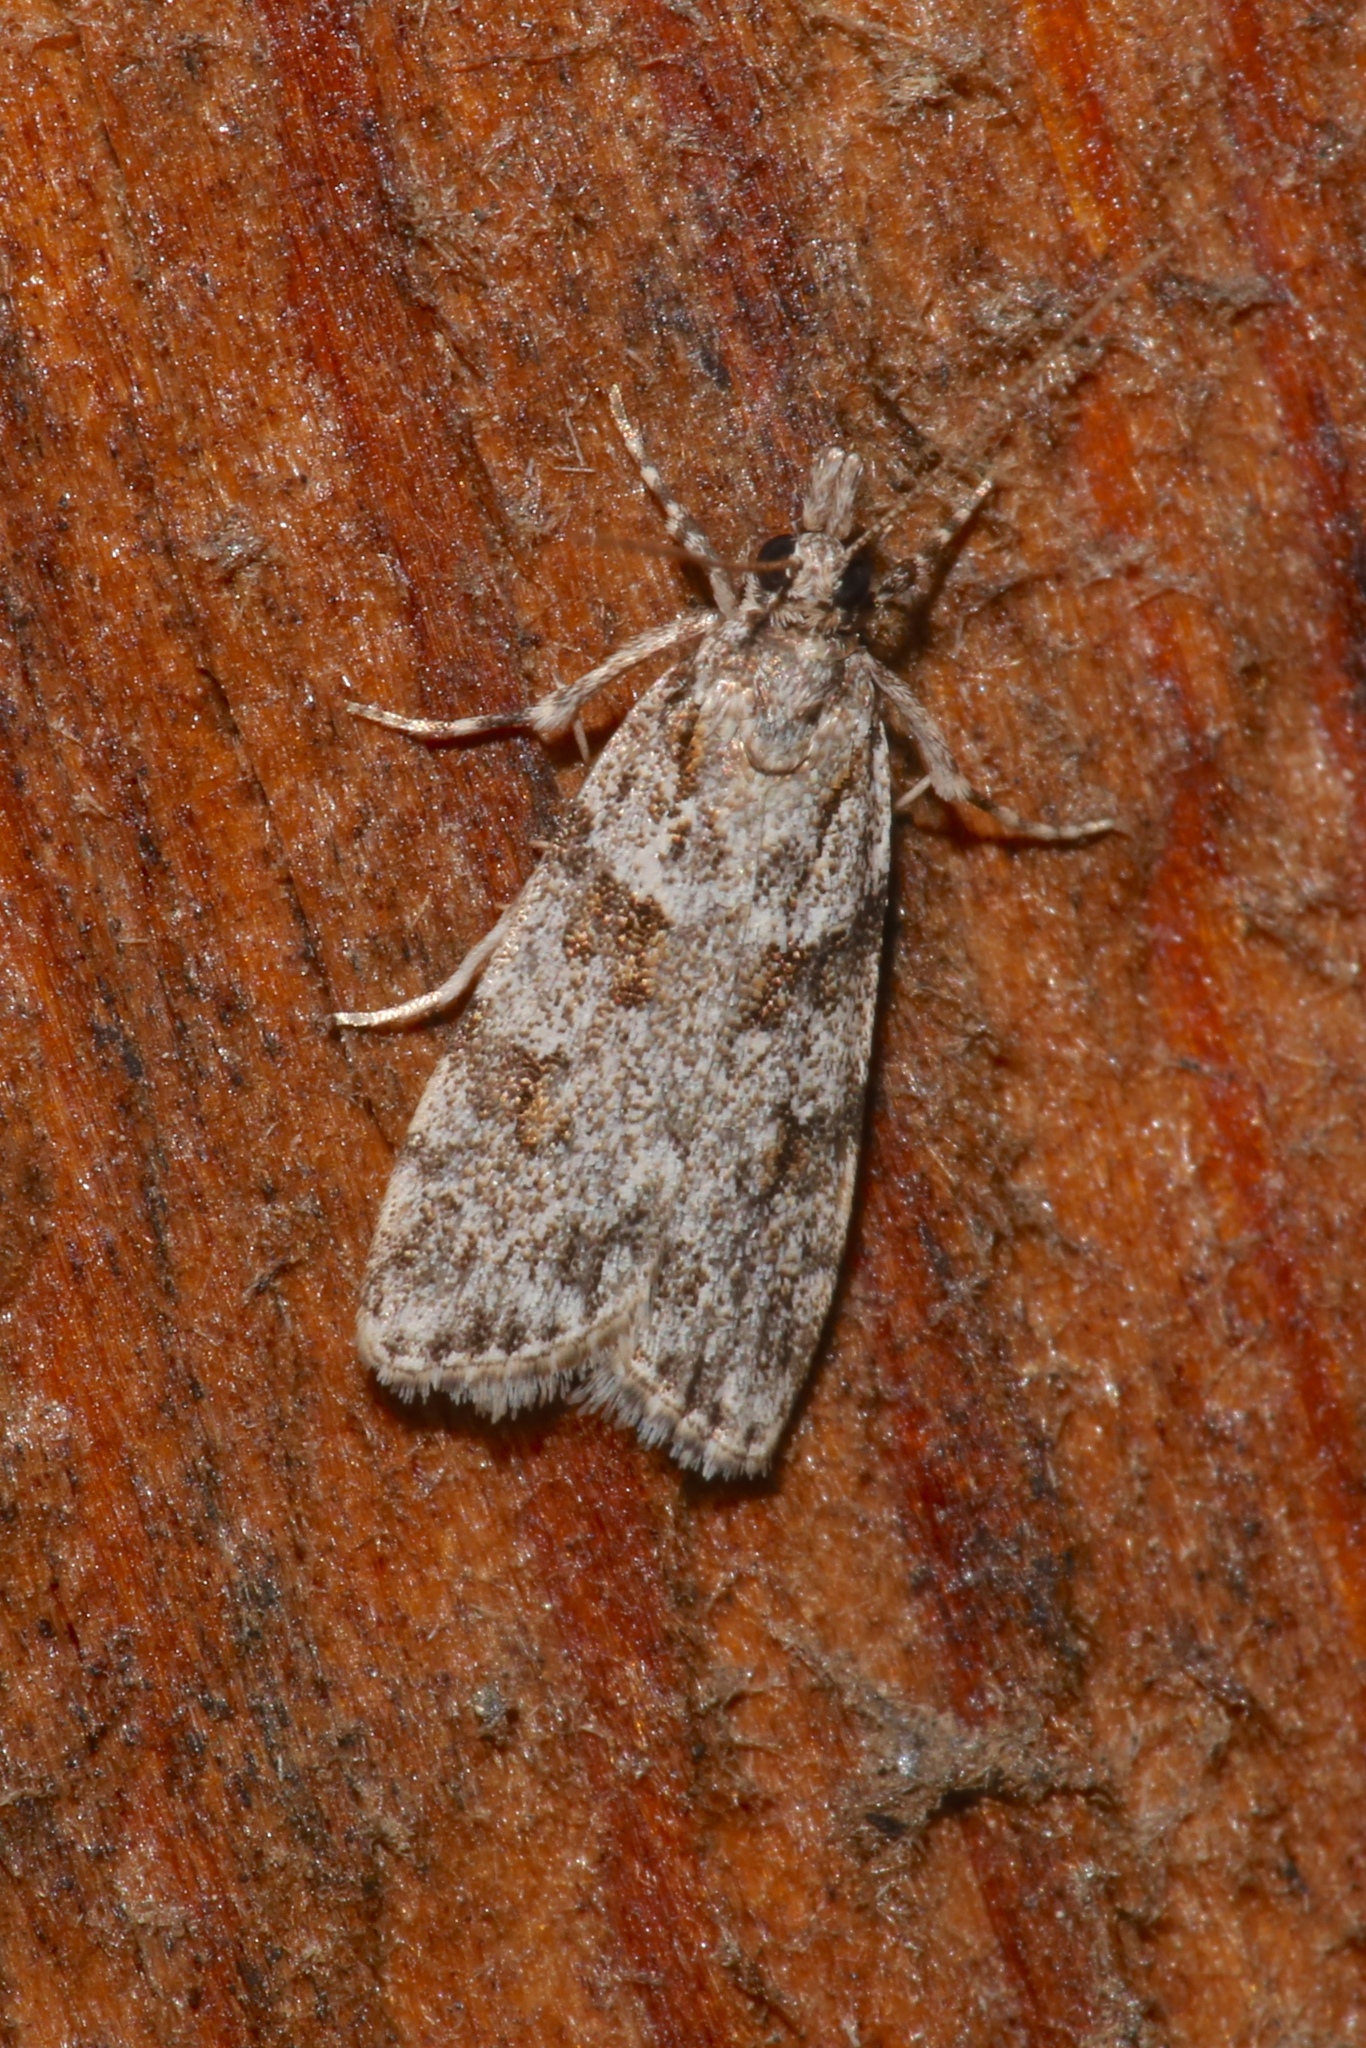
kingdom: Animalia
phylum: Arthropoda
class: Insecta
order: Lepidoptera
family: Crambidae
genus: Scoparia
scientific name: Scoparia biplagialis
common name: Double-striped scoparia moth
